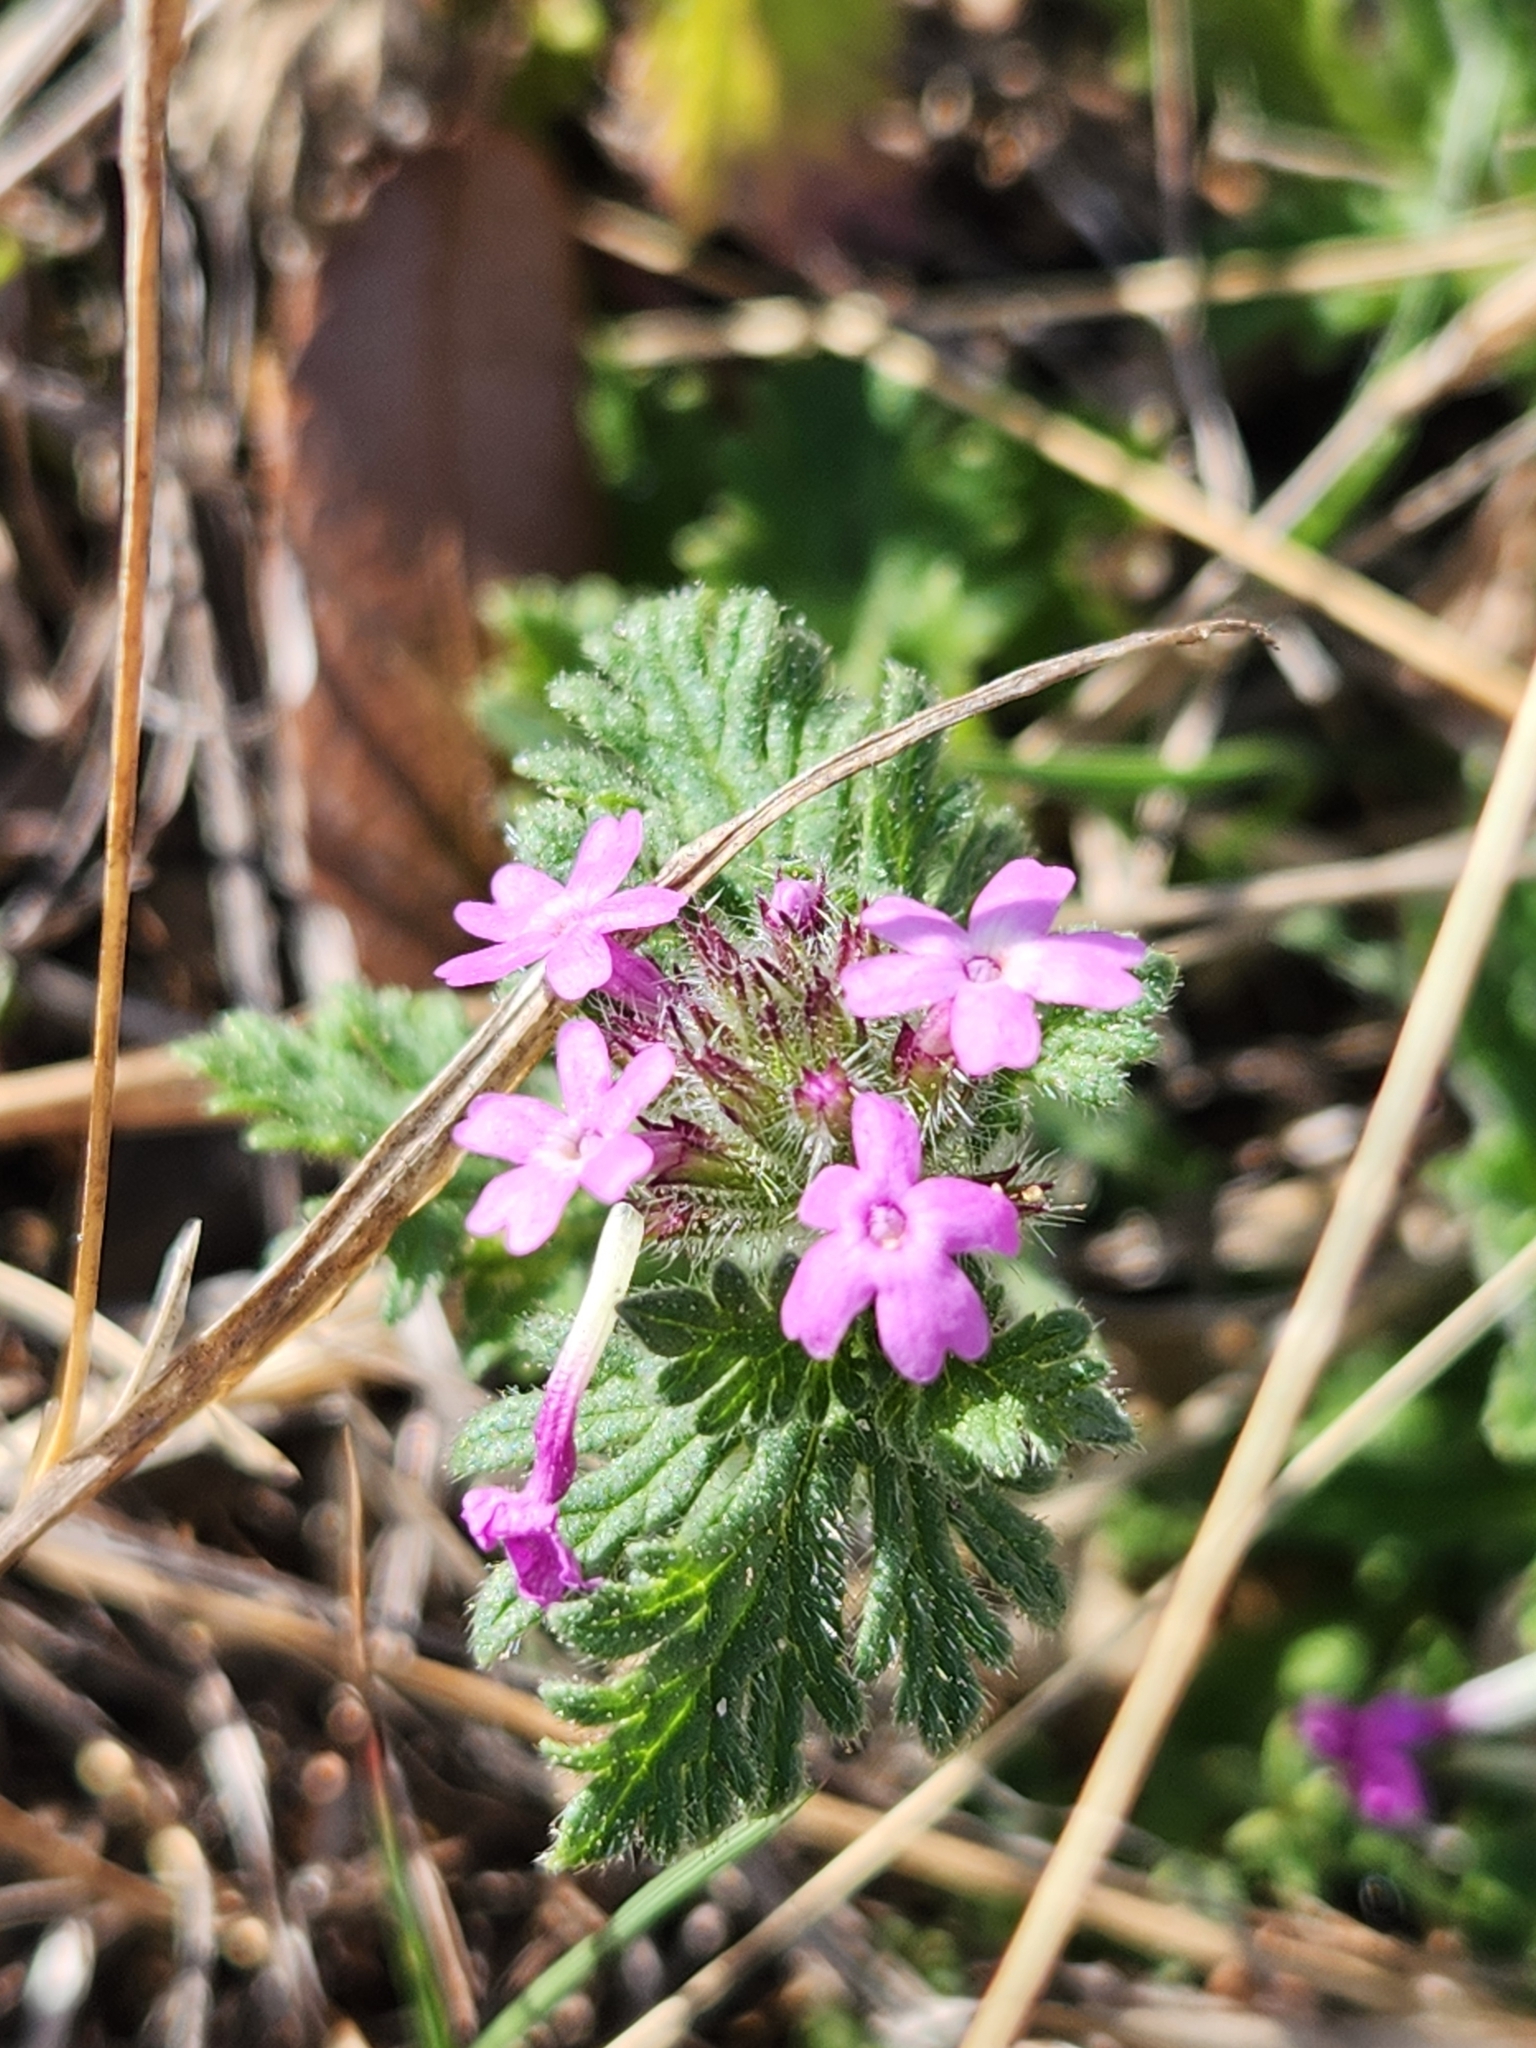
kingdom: Plantae
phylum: Tracheophyta
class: Magnoliopsida
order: Lamiales
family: Verbenaceae
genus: Verbena
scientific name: Verbena pumila
